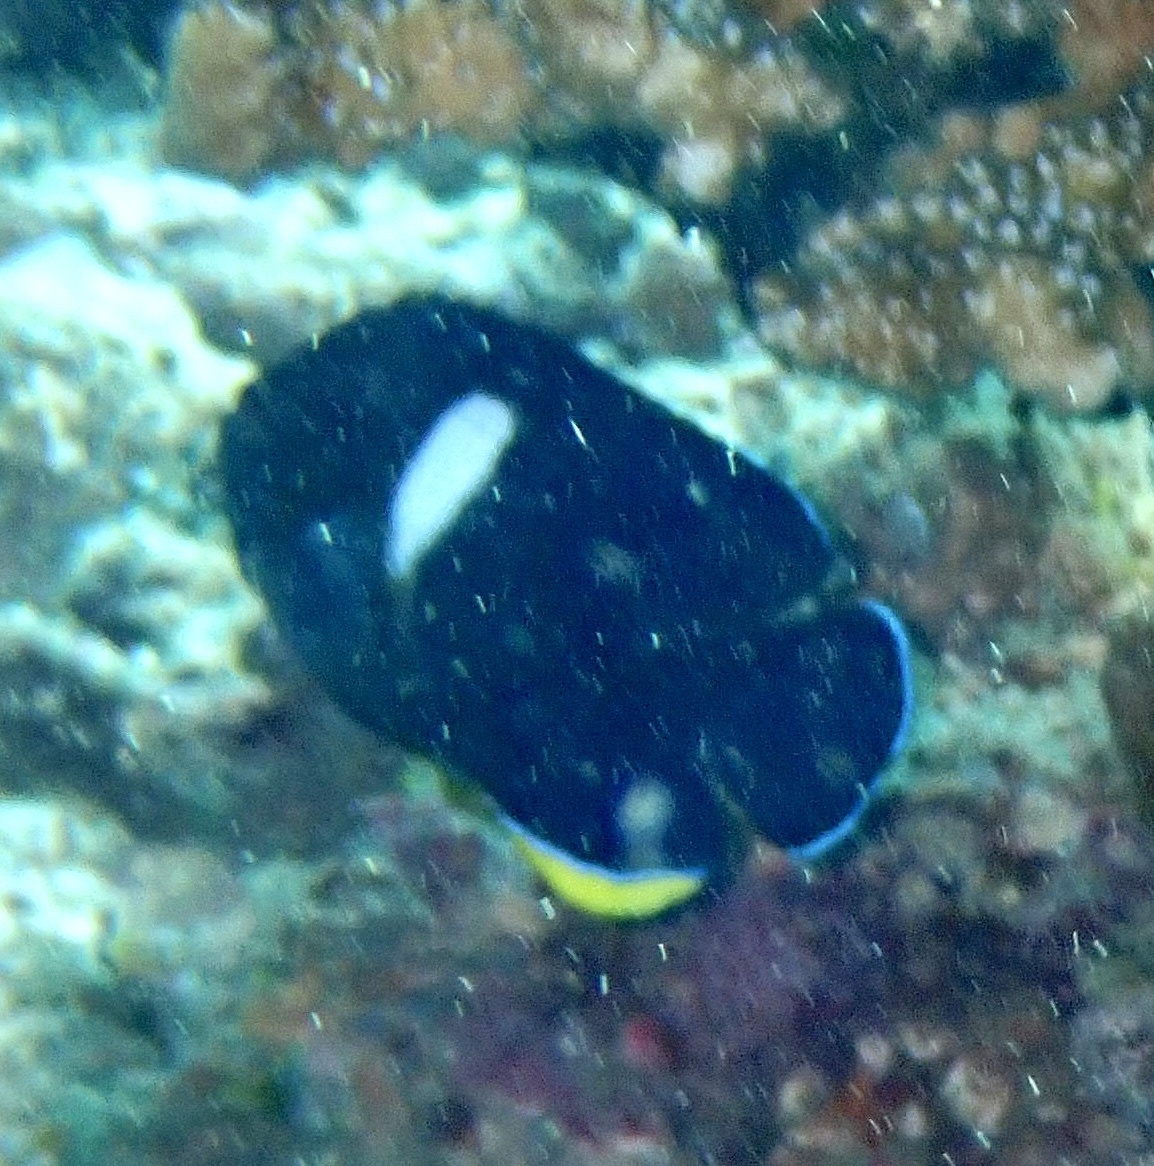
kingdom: Animalia
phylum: Chordata
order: Perciformes
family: Pomacanthidae
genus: Centropyge
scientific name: Centropyge tibicen
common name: Keyhole angelfish
